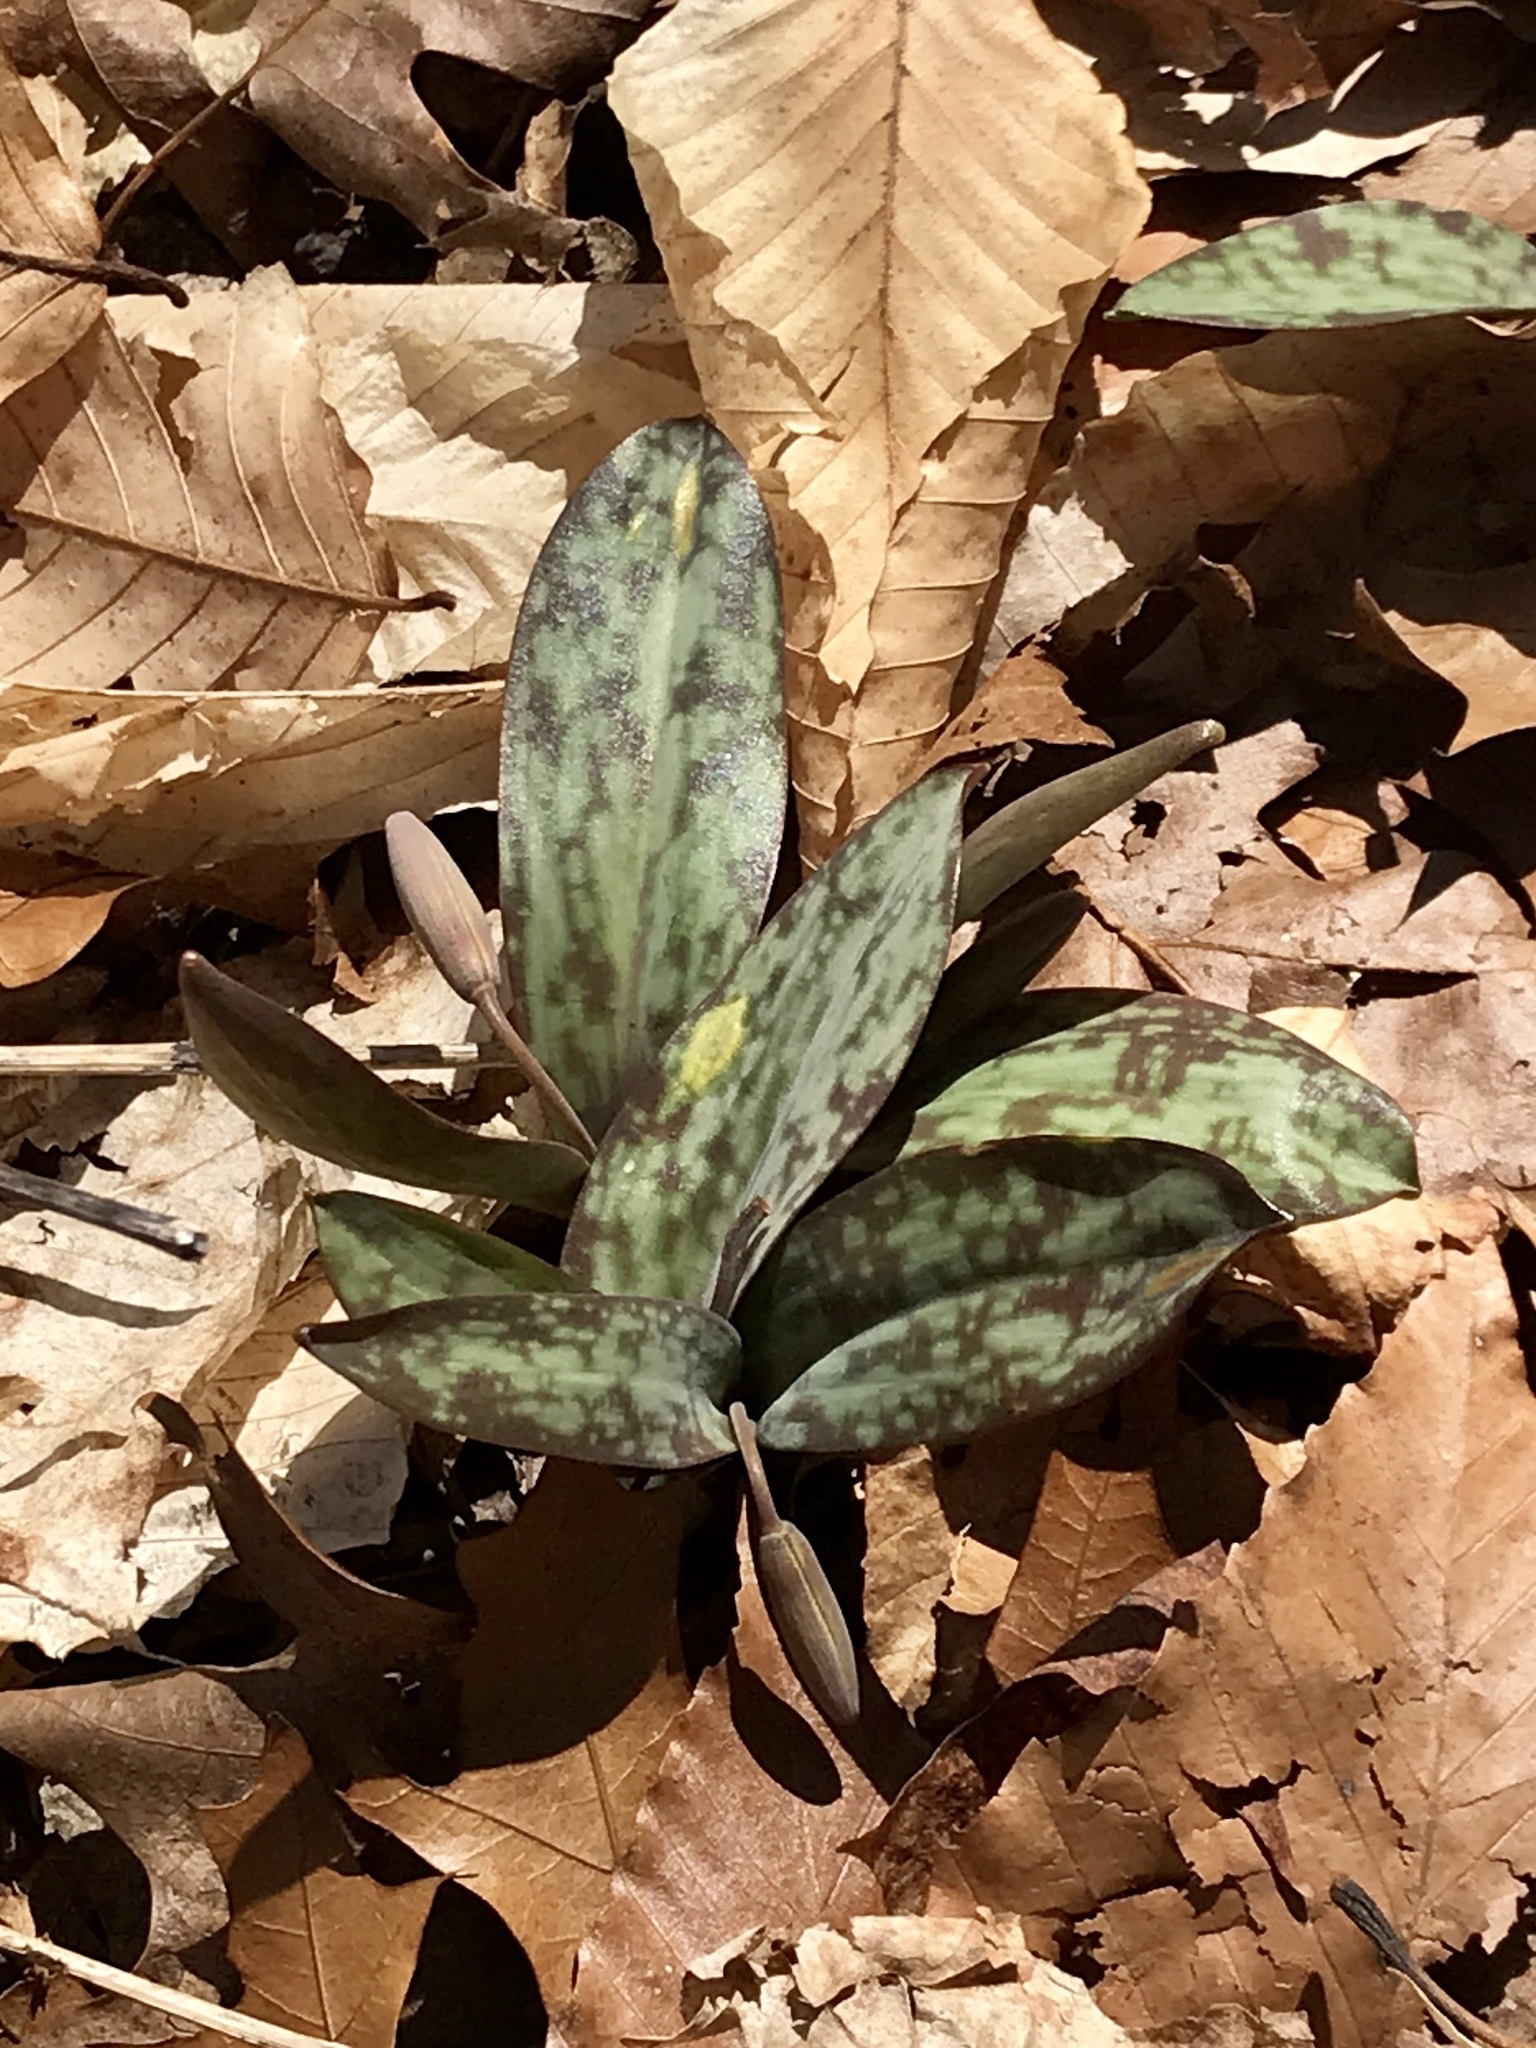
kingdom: Plantae
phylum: Tracheophyta
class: Liliopsida
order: Liliales
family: Liliaceae
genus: Erythronium
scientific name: Erythronium americanum
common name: Yellow adder's-tongue
